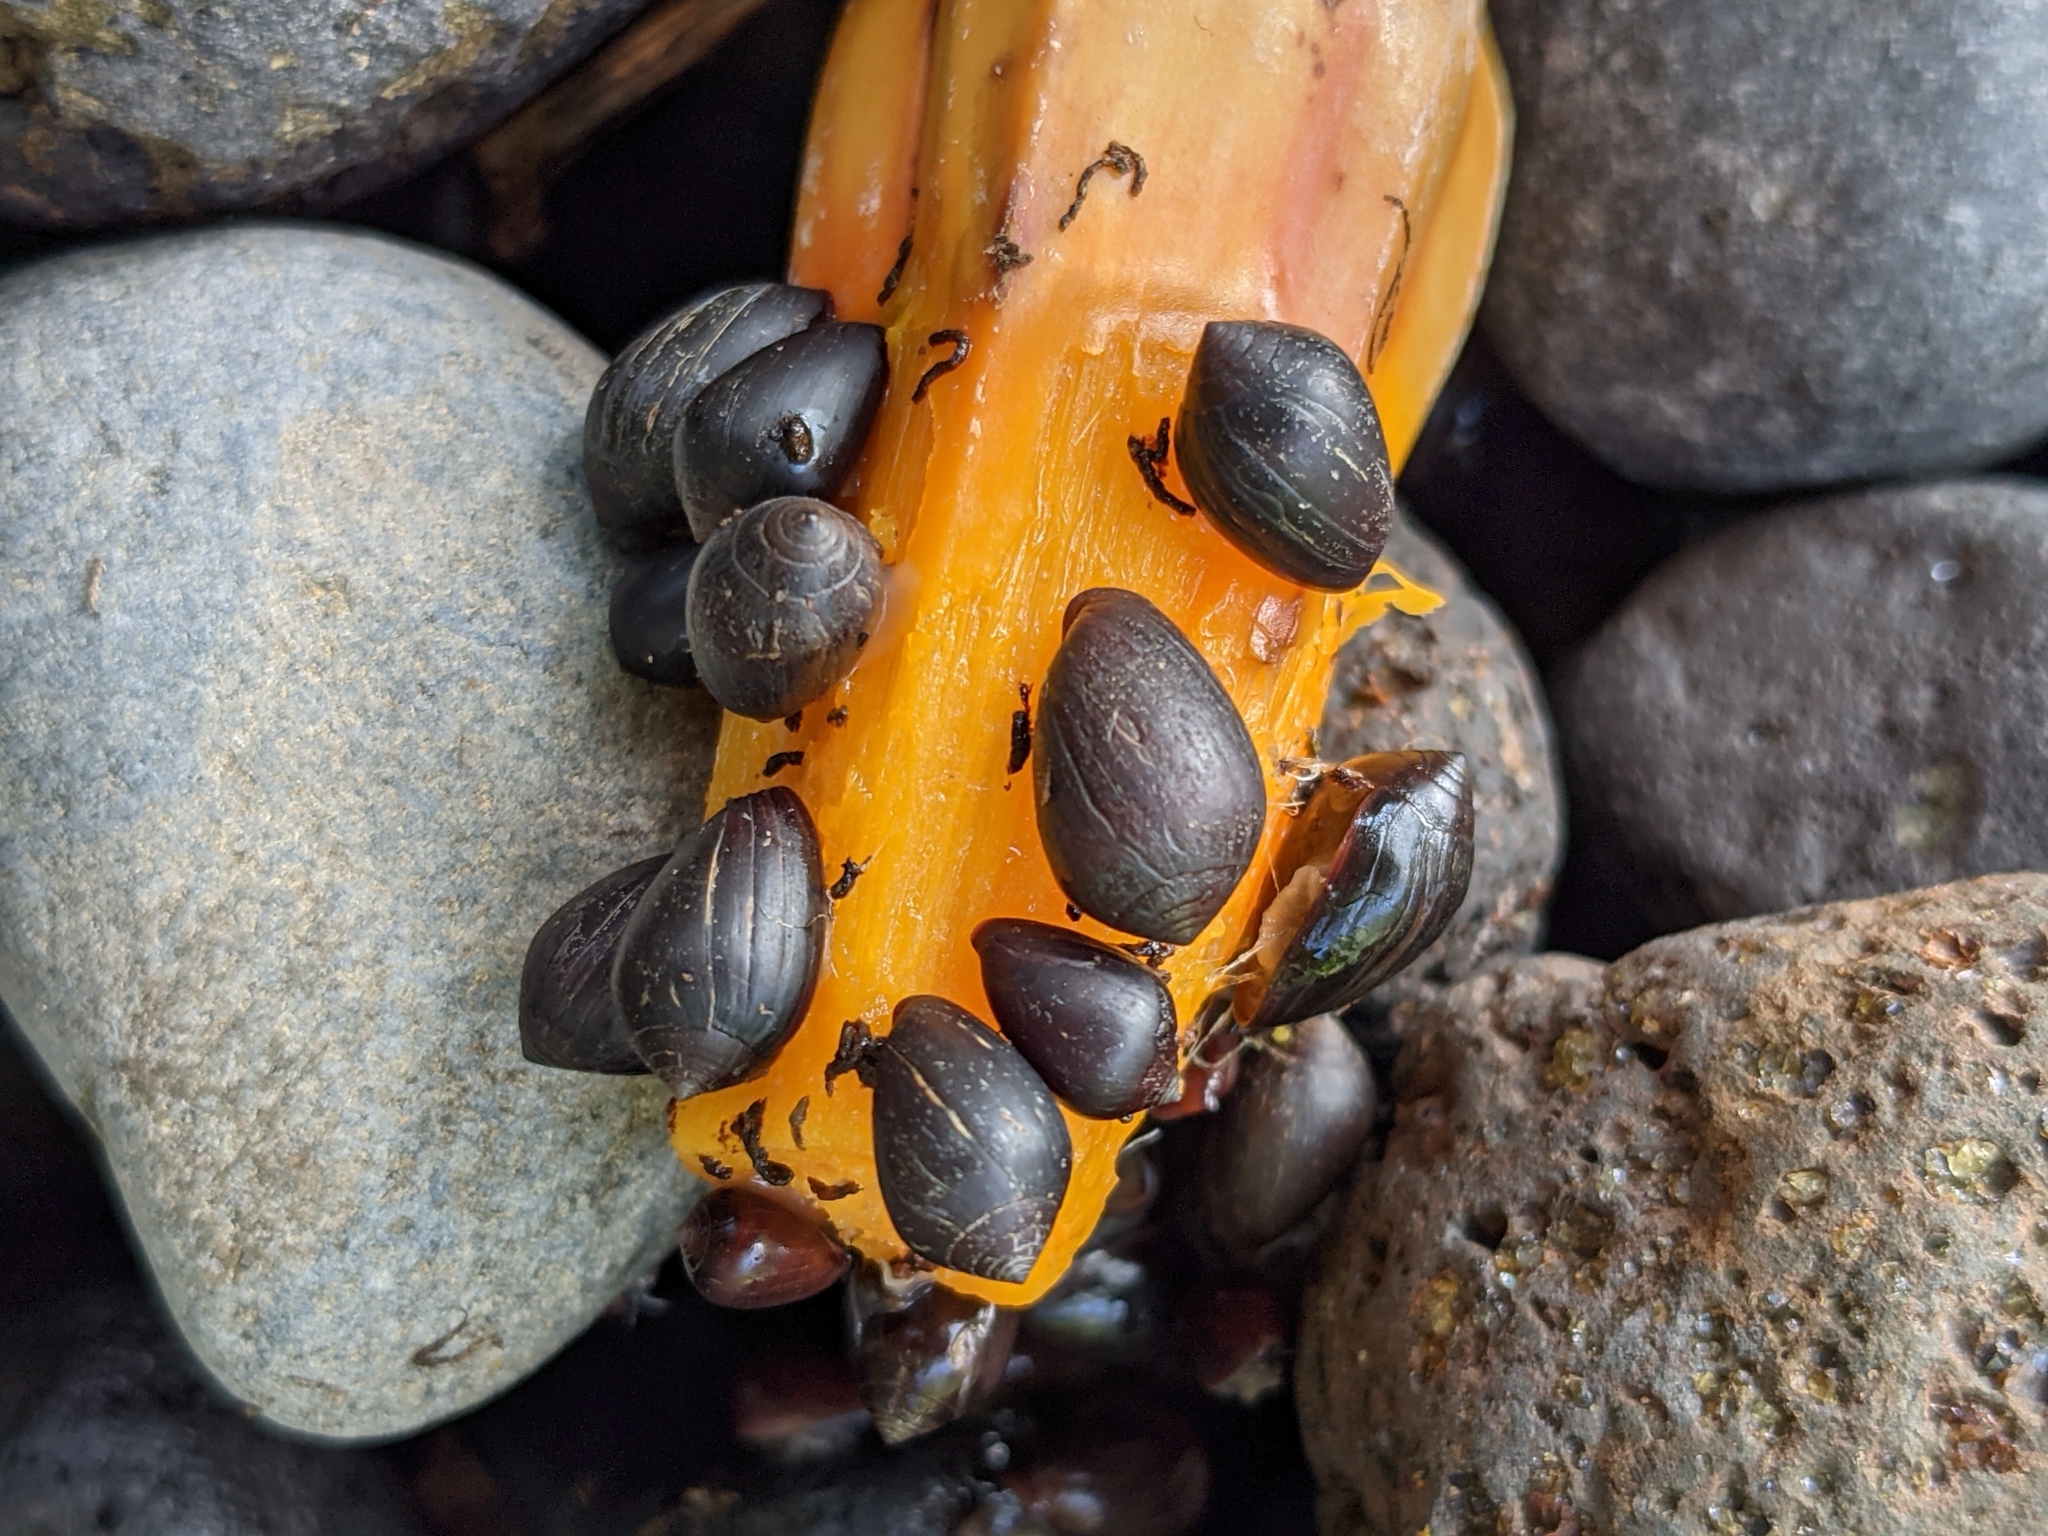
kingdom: Animalia
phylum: Mollusca
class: Gastropoda
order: Ellobiida
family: Ellobiidae
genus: Melampus
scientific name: Melampus castaneus
